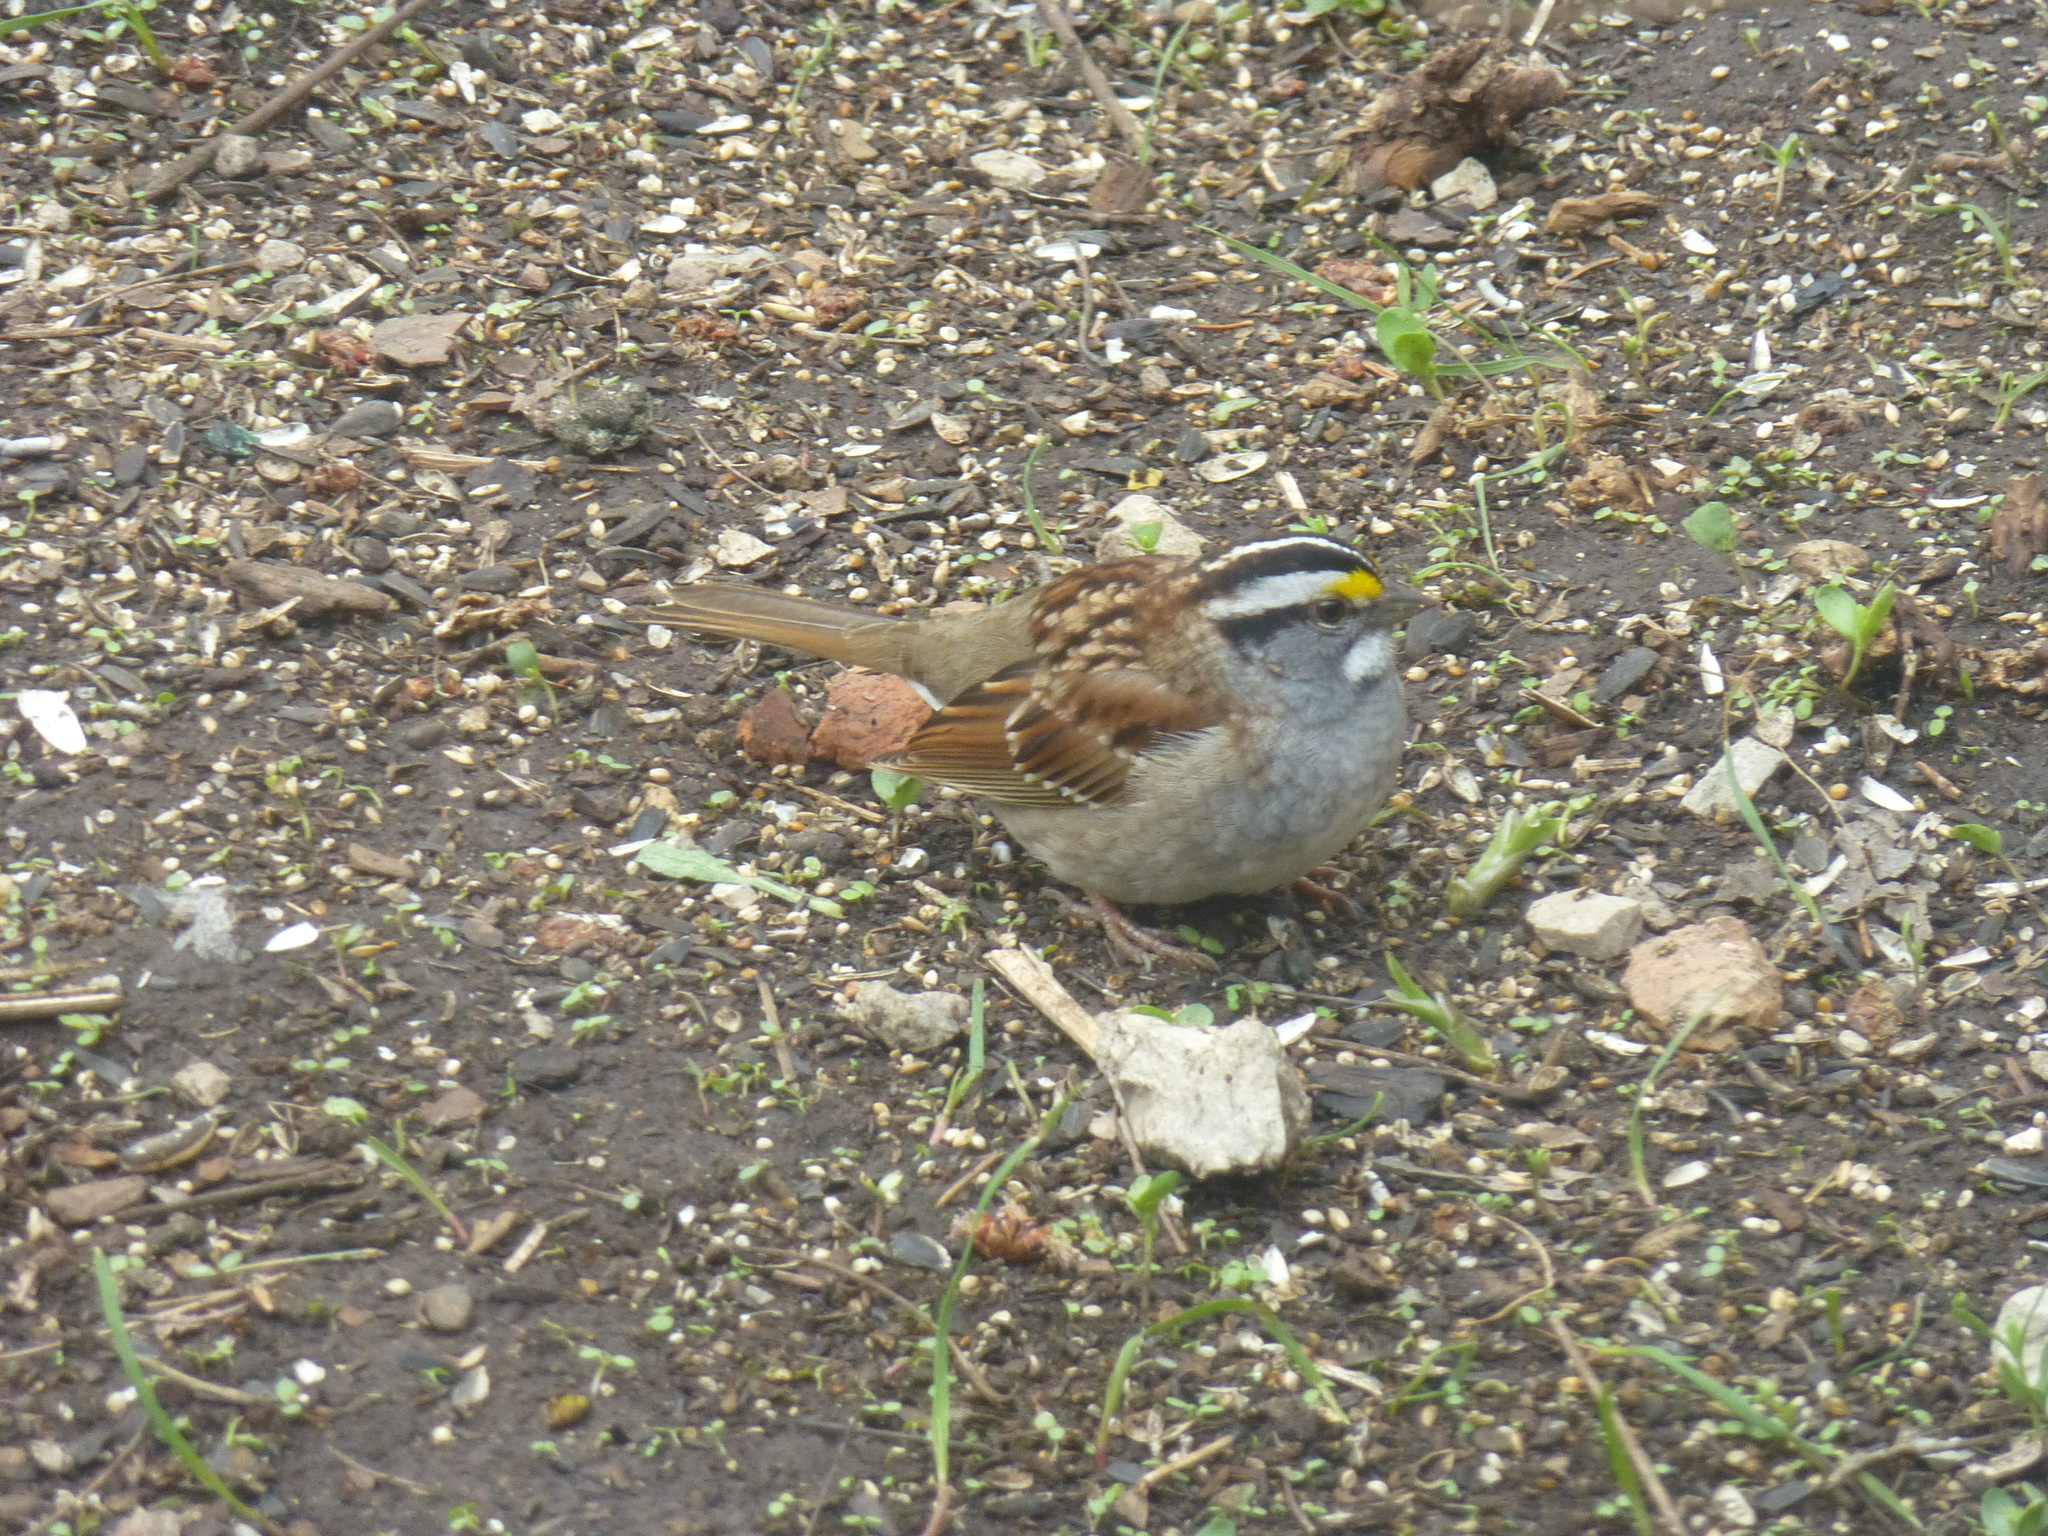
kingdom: Animalia
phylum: Chordata
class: Aves
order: Passeriformes
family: Passerellidae
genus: Zonotrichia
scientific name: Zonotrichia albicollis
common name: White-throated sparrow
